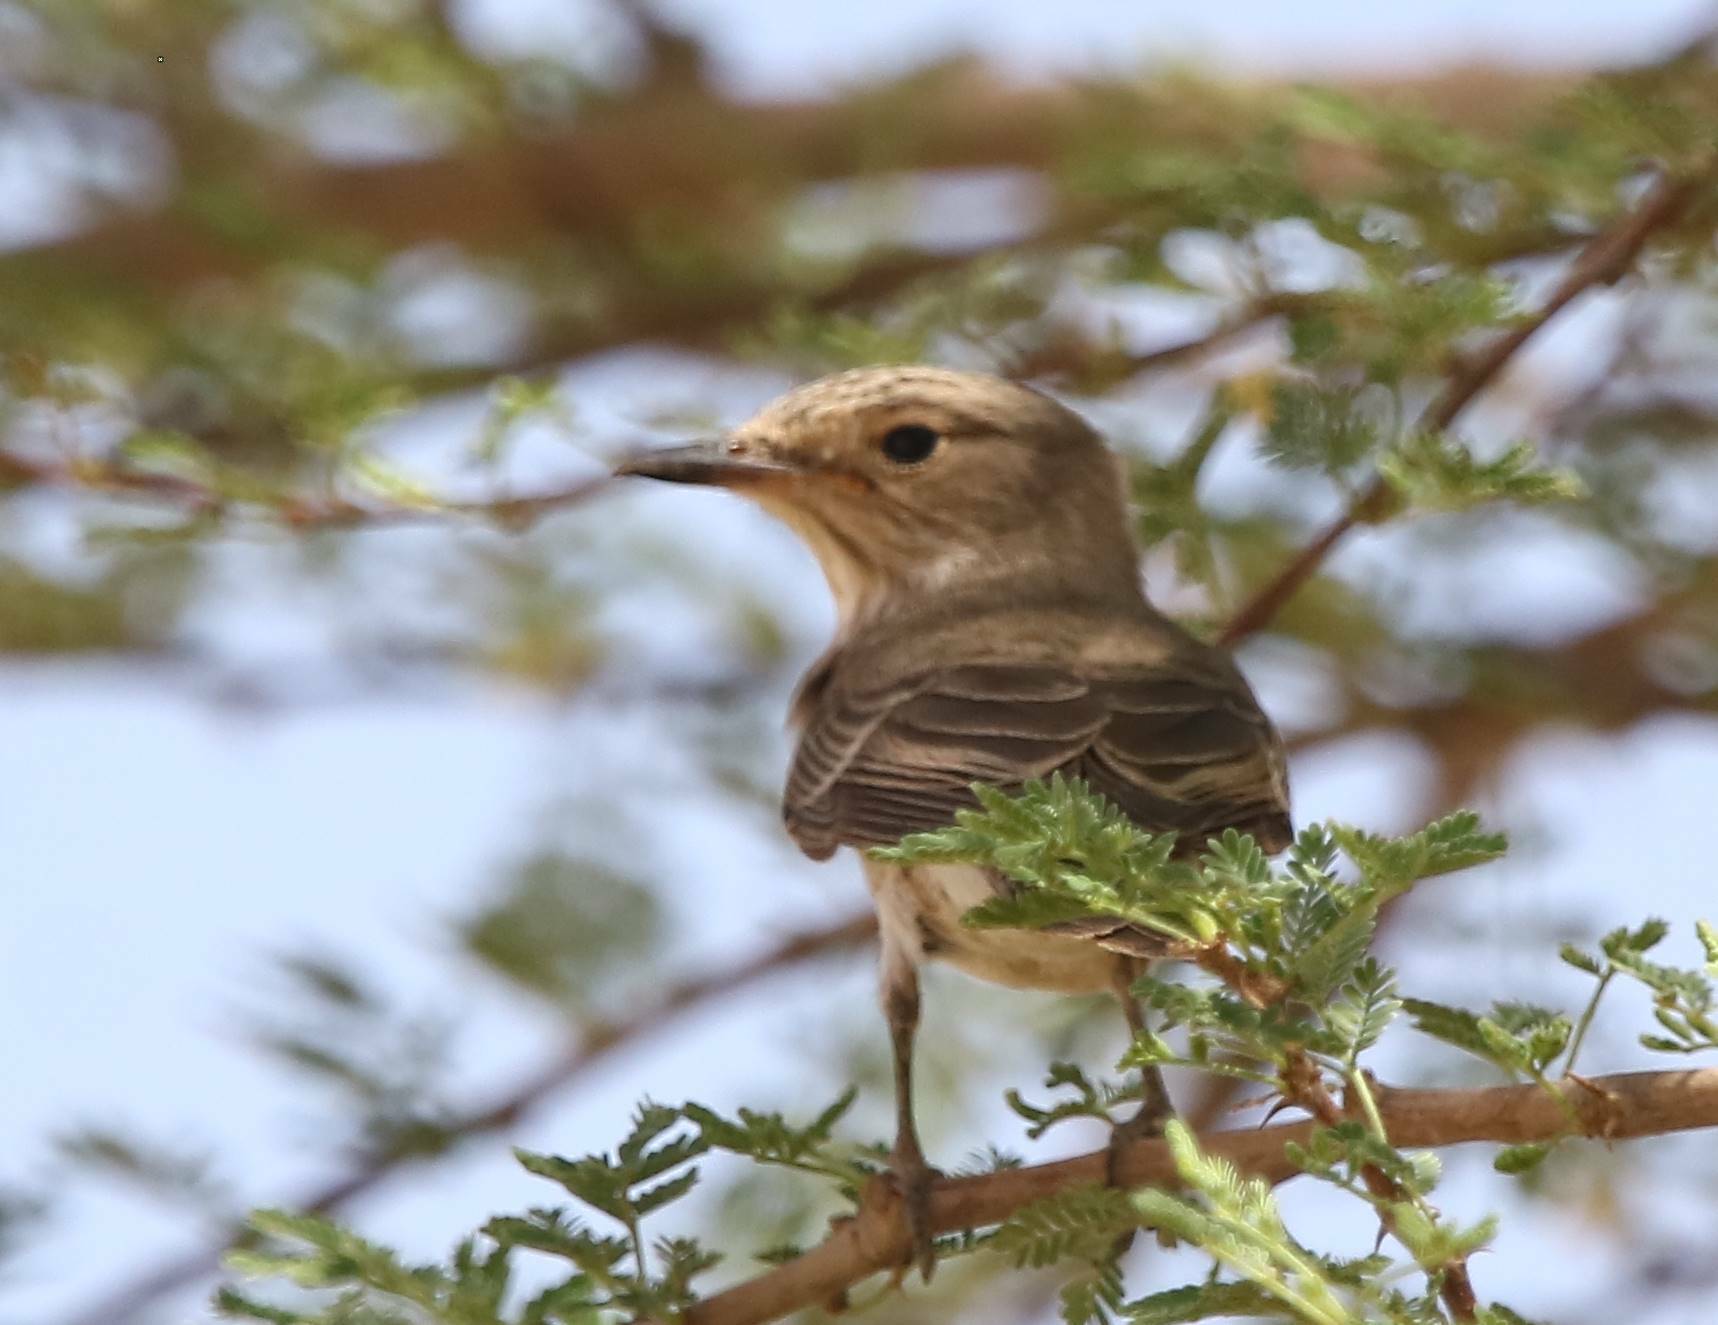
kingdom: Animalia
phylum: Chordata
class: Aves
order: Passeriformes
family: Muscicapidae
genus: Muscicapa
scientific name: Muscicapa striata
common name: Spotted flycatcher
